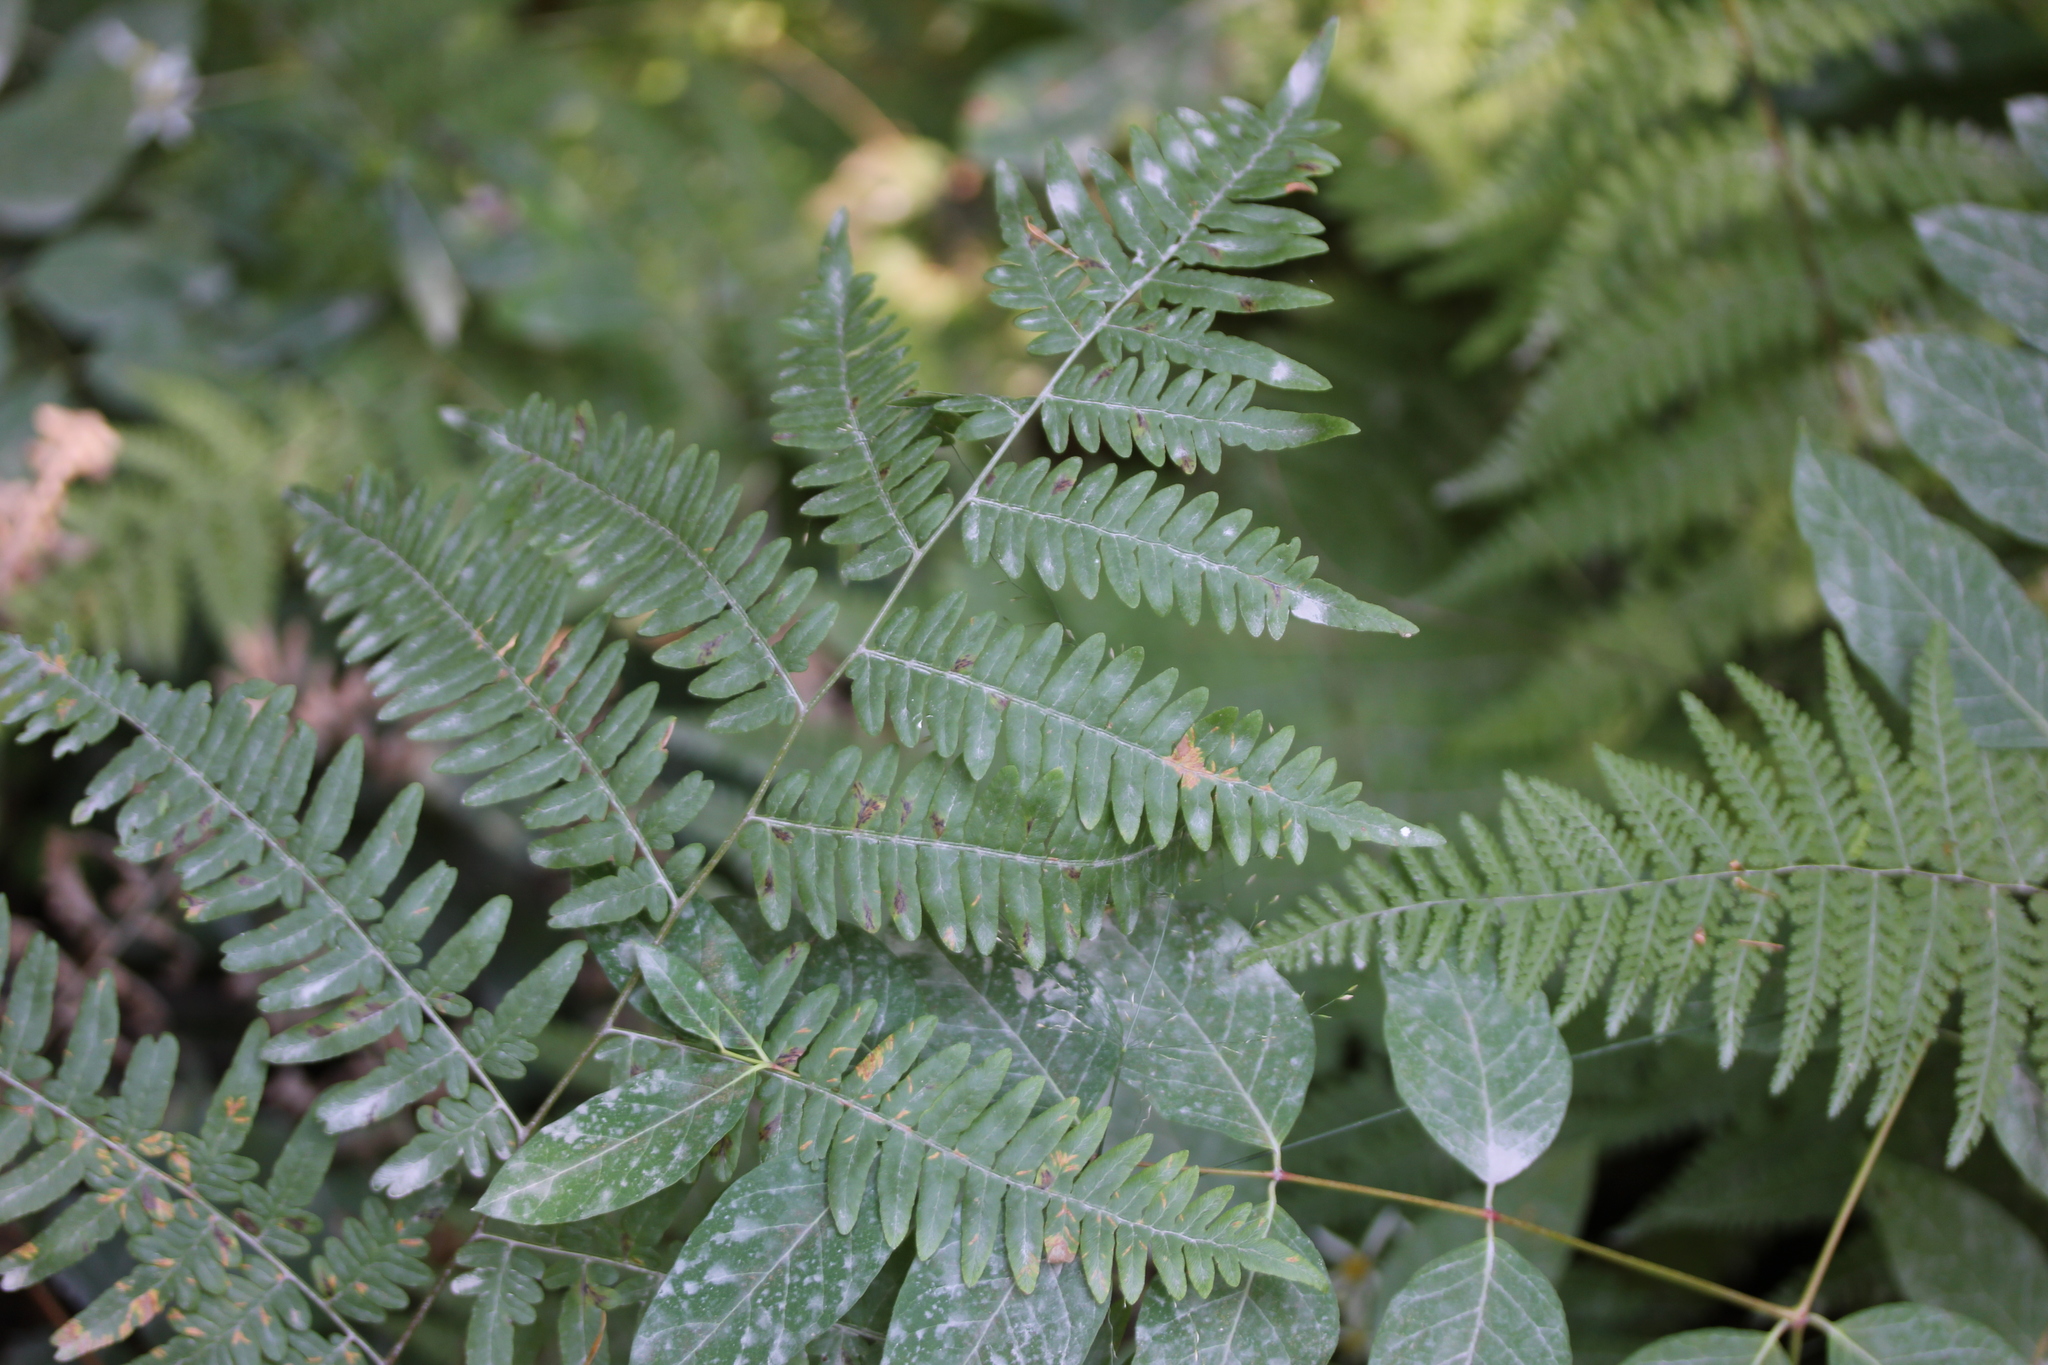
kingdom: Plantae
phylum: Tracheophyta
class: Polypodiopsida
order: Polypodiales
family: Dennstaedtiaceae
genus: Pteridium
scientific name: Pteridium aquilinum
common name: Bracken
